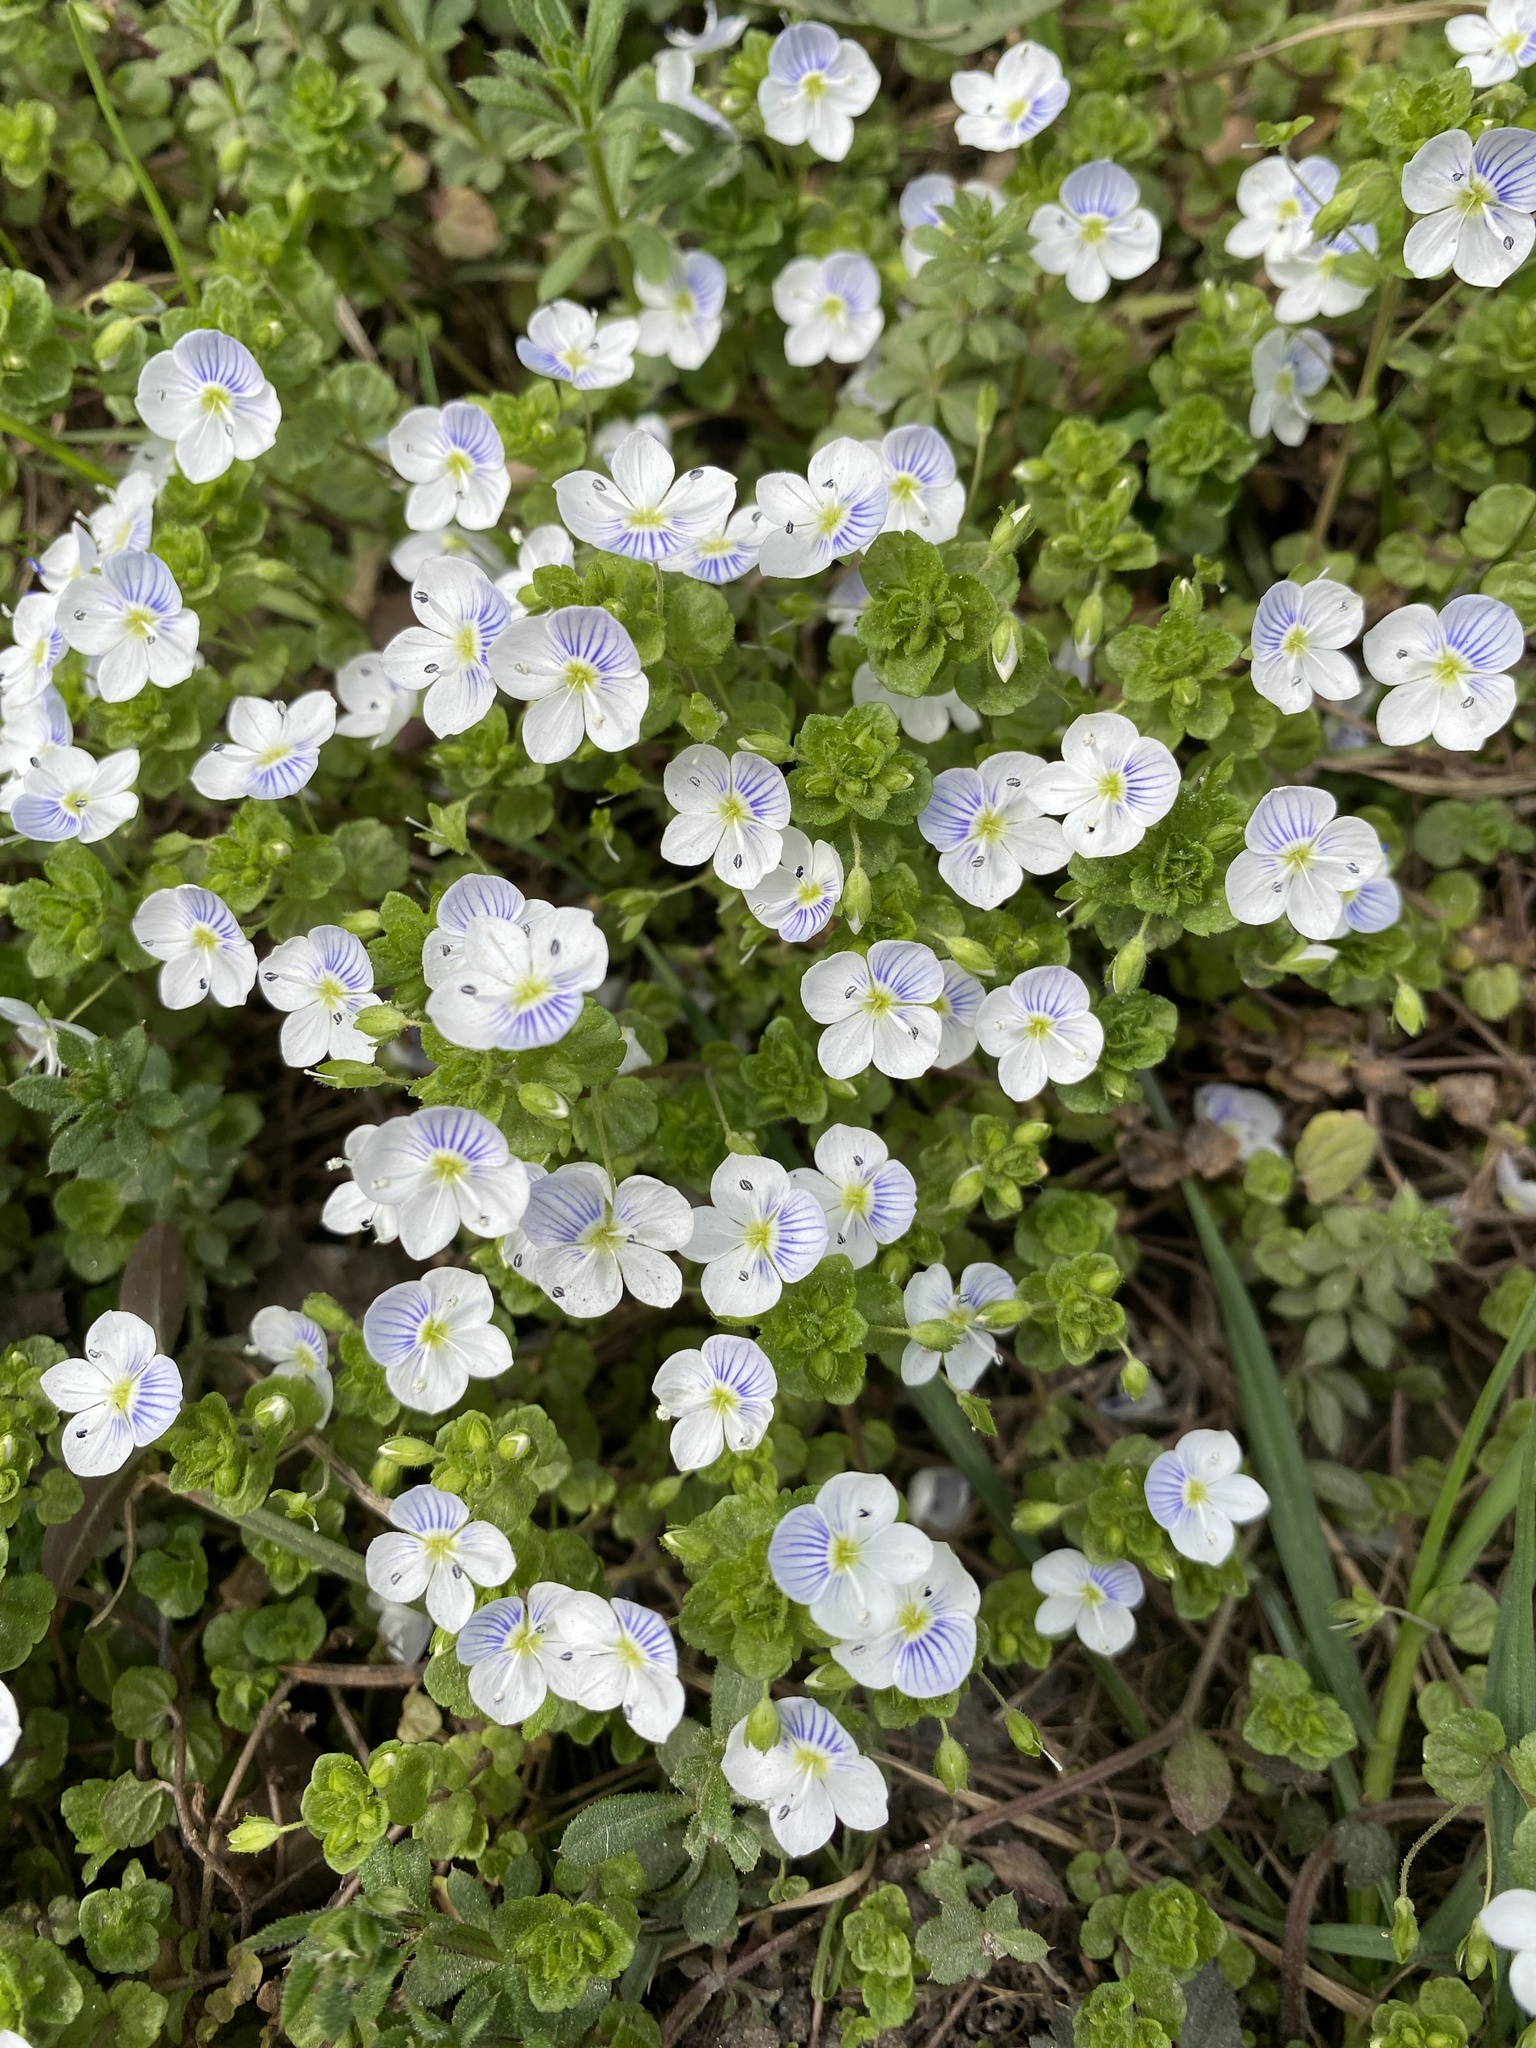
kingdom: Plantae
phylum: Tracheophyta
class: Magnoliopsida
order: Lamiales
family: Plantaginaceae
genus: Veronica
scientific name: Veronica filiformis
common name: Slender speedwell
